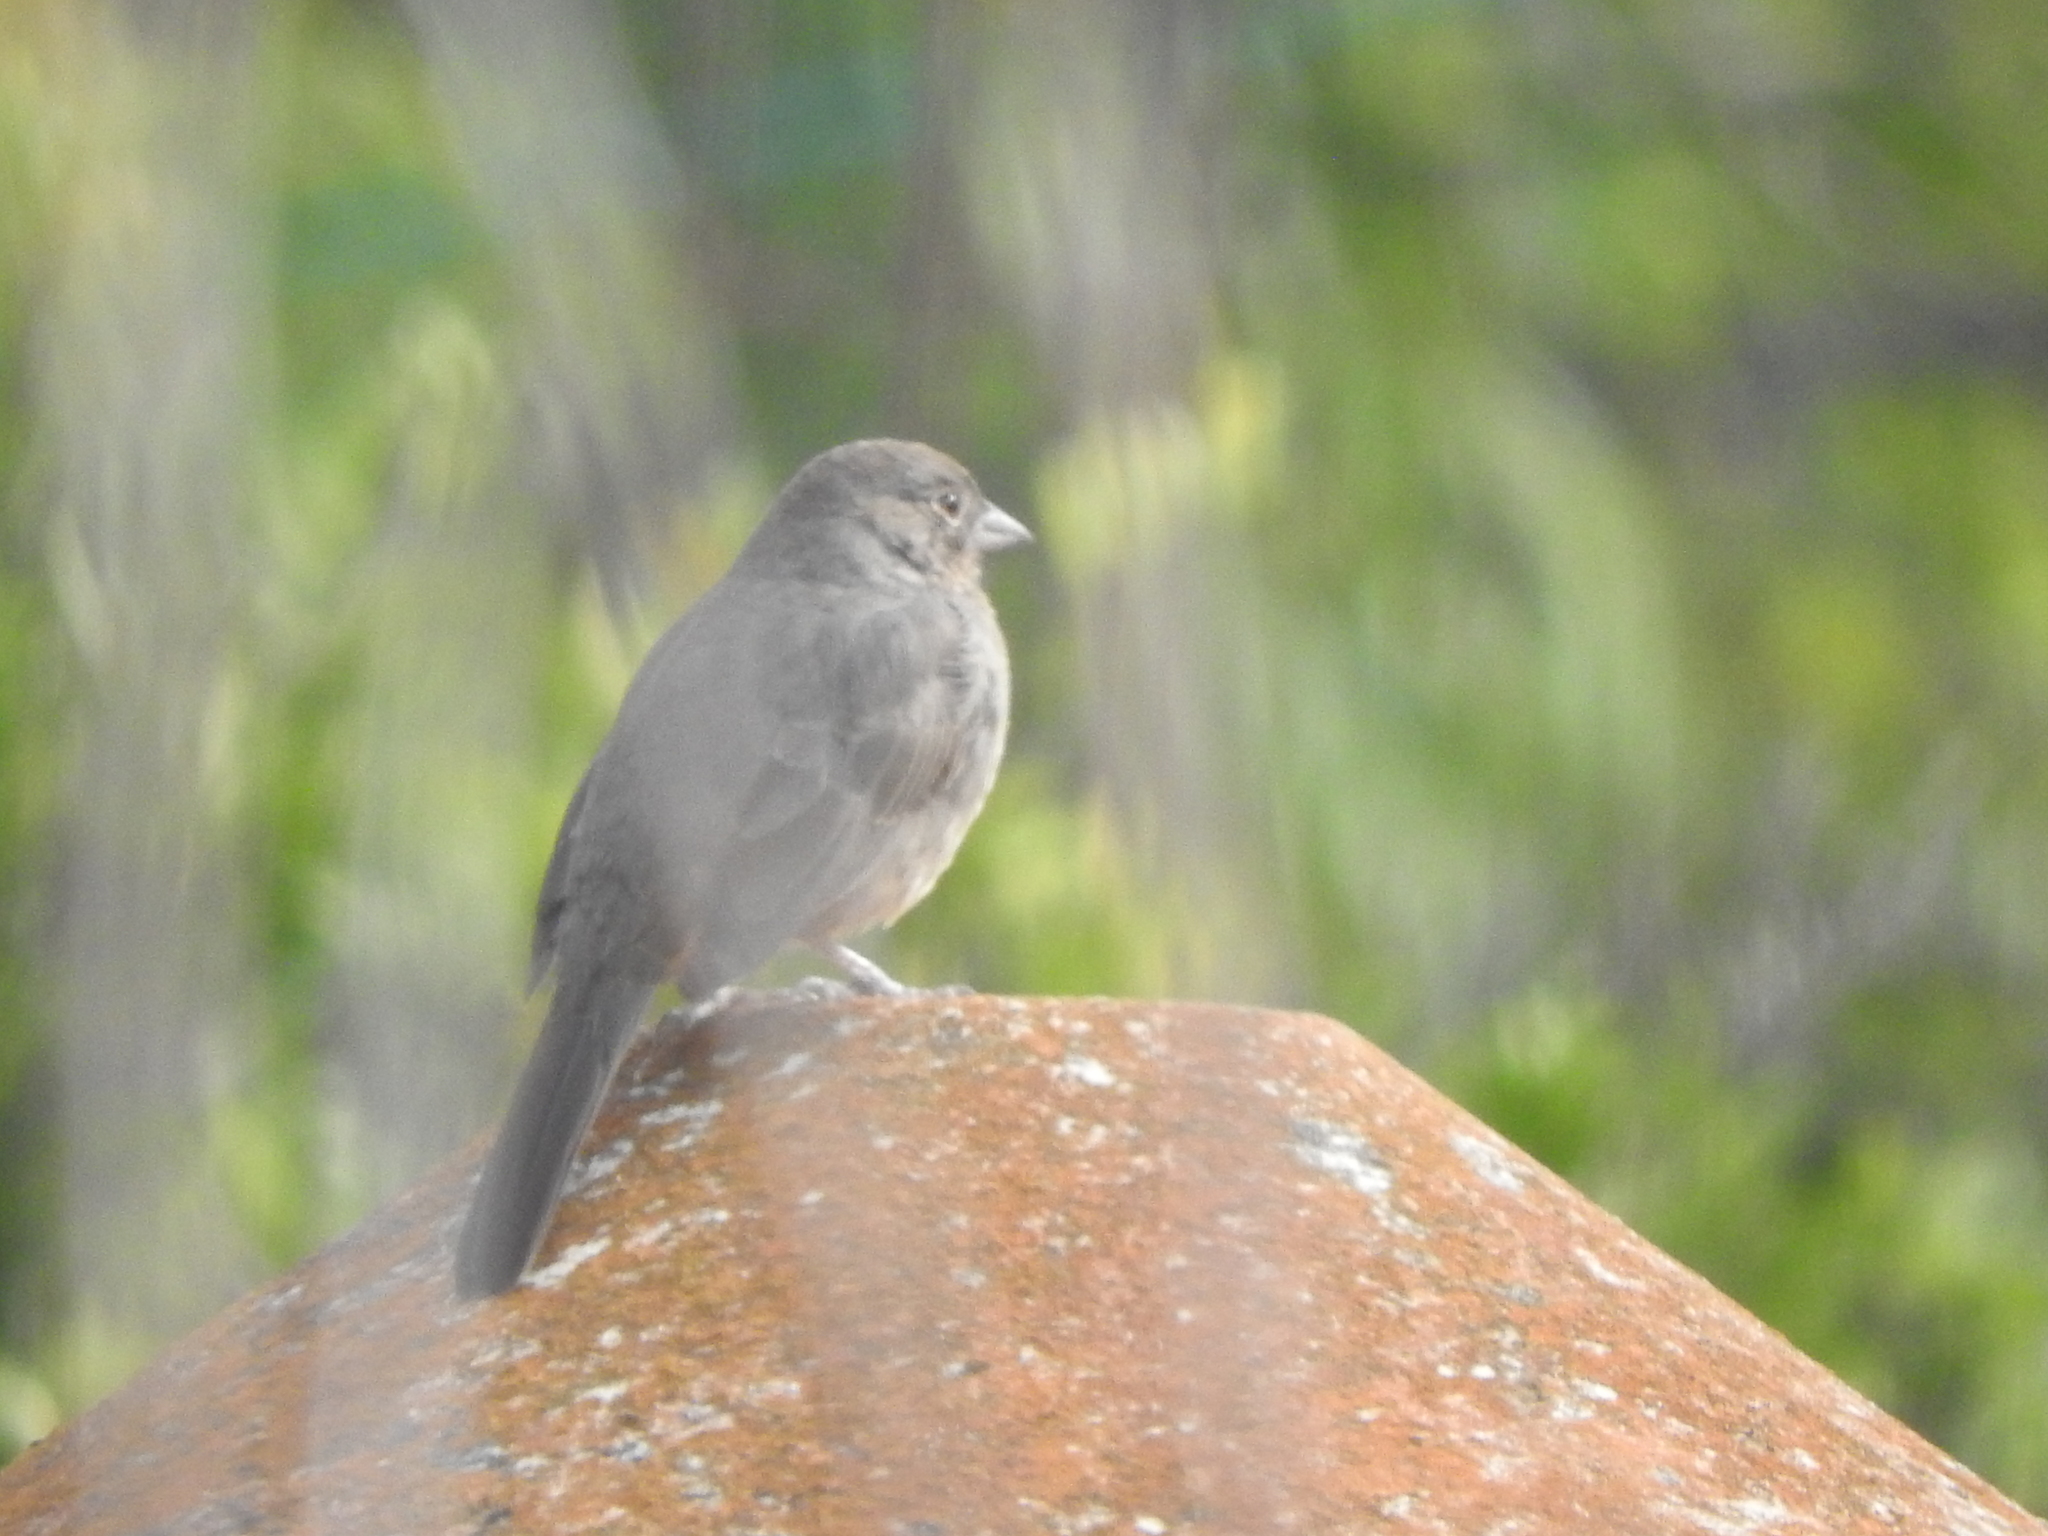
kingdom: Animalia
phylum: Chordata
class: Aves
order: Passeriformes
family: Passerellidae
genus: Melozone
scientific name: Melozone fusca
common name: Canyon towhee
